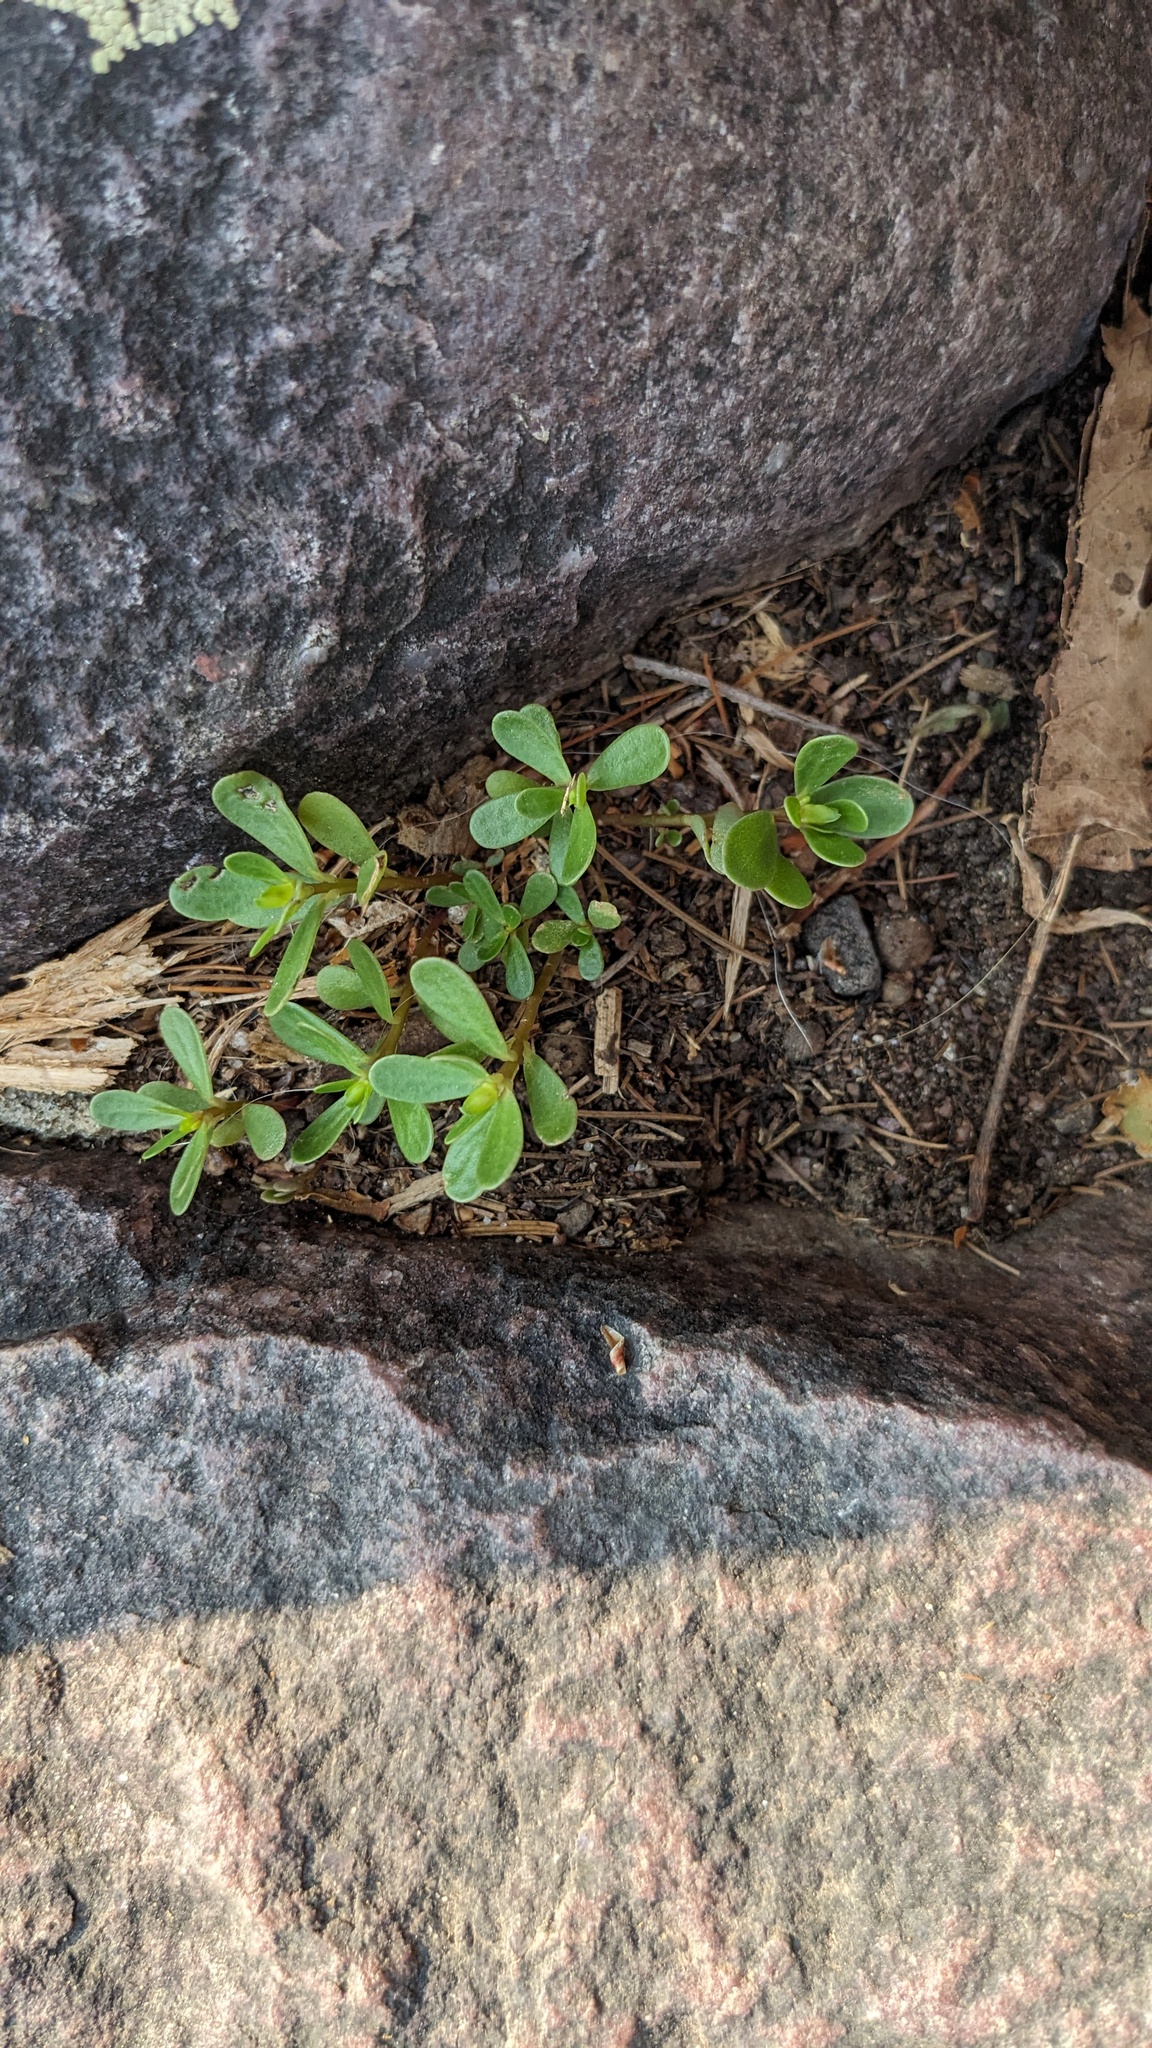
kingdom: Plantae
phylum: Tracheophyta
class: Magnoliopsida
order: Caryophyllales
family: Portulacaceae
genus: Portulaca
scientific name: Portulaca oleracea
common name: Common purslane
